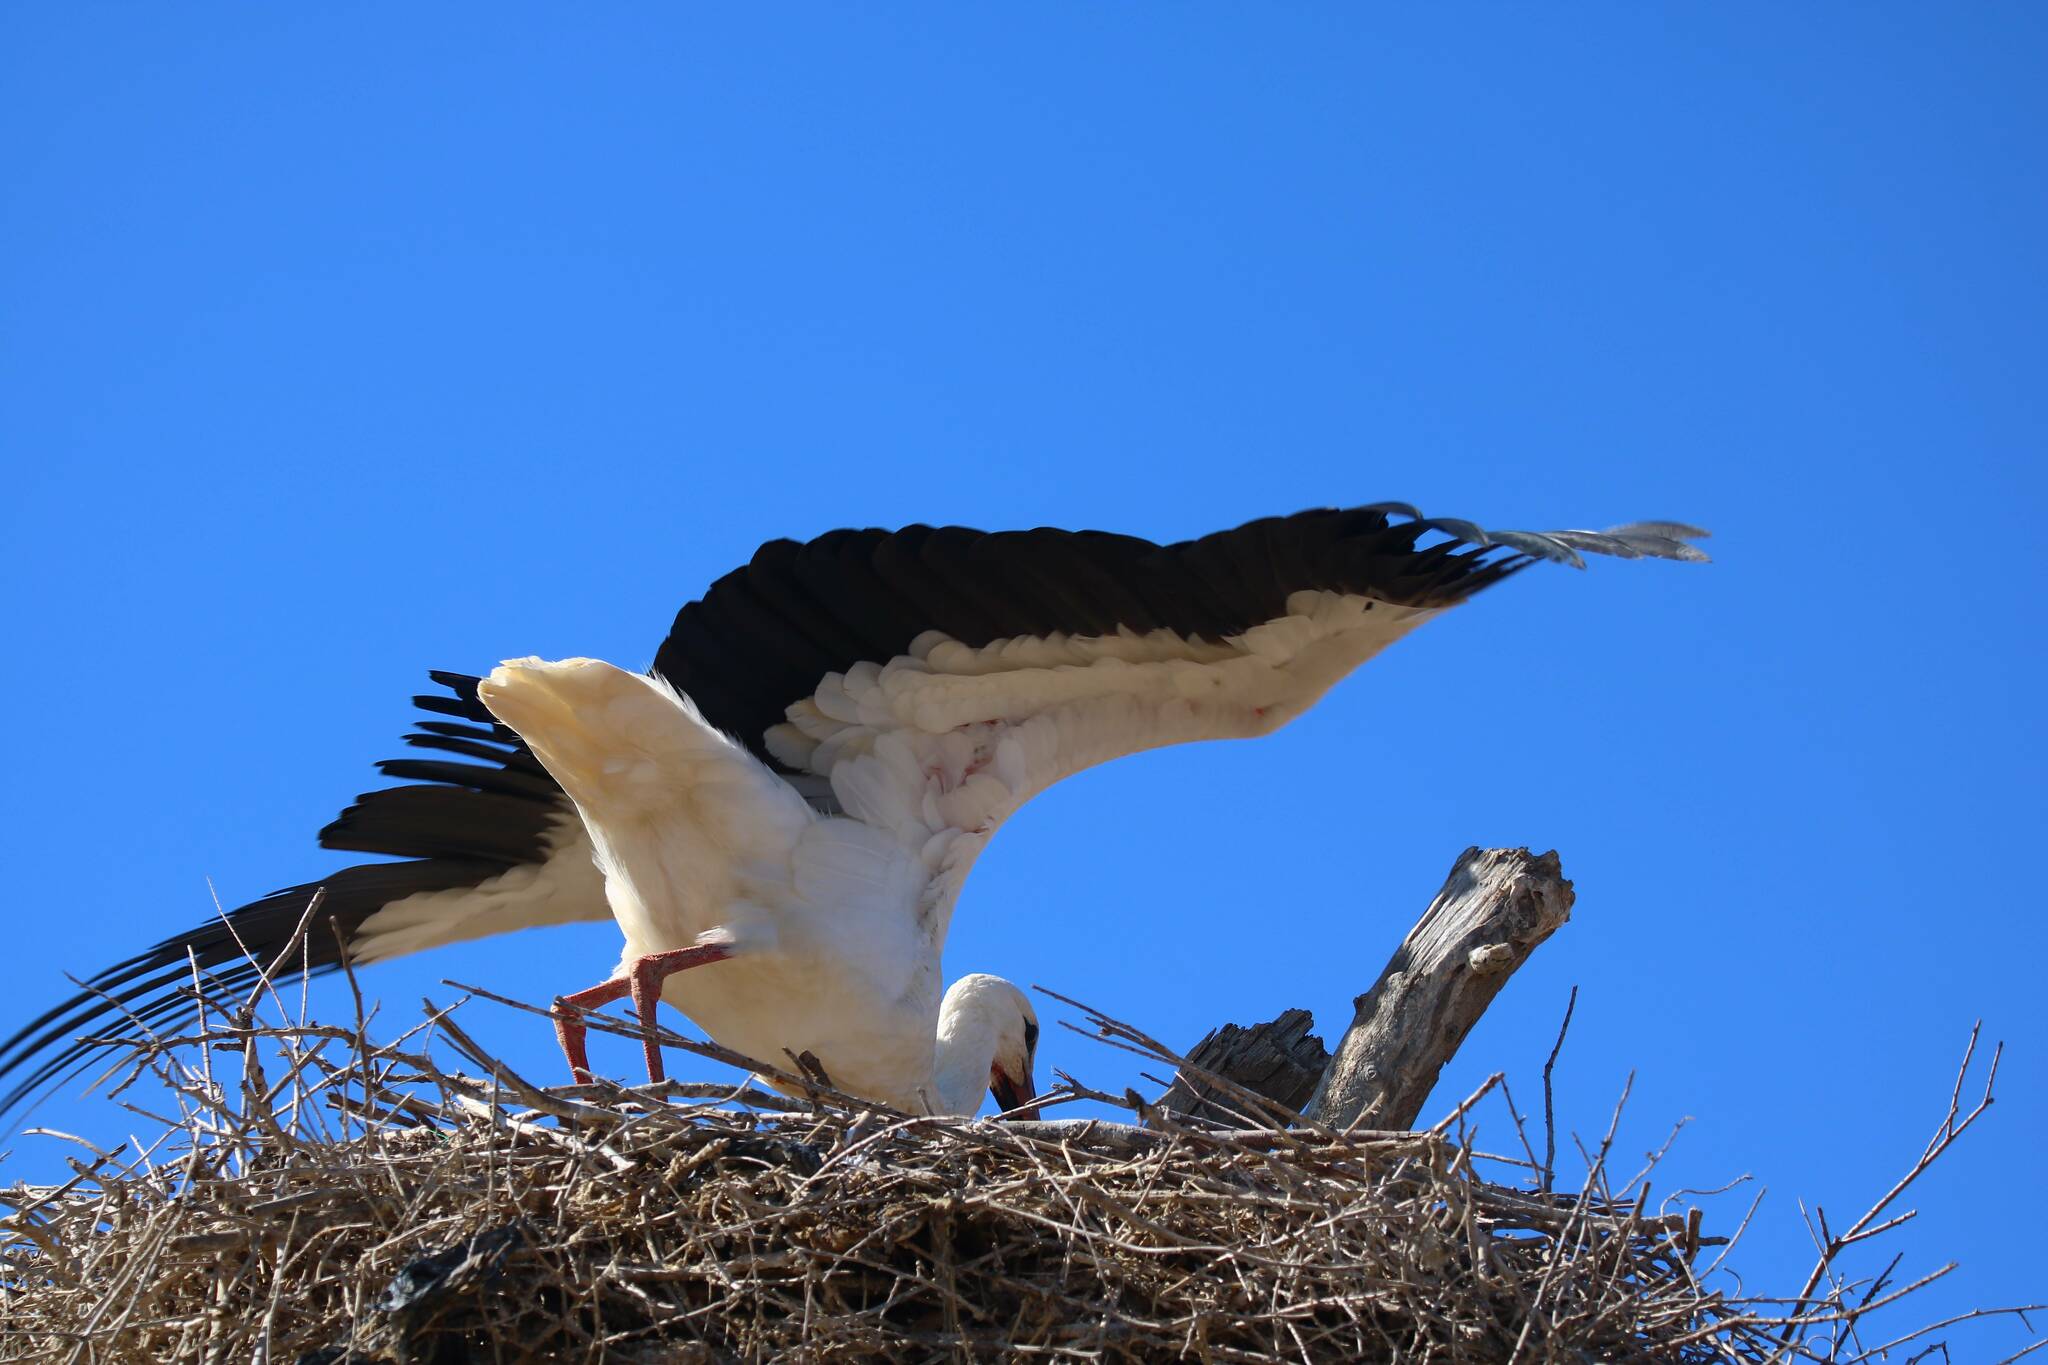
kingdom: Animalia
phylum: Chordata
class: Aves
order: Ciconiiformes
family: Ciconiidae
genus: Ciconia
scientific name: Ciconia ciconia
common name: White stork
